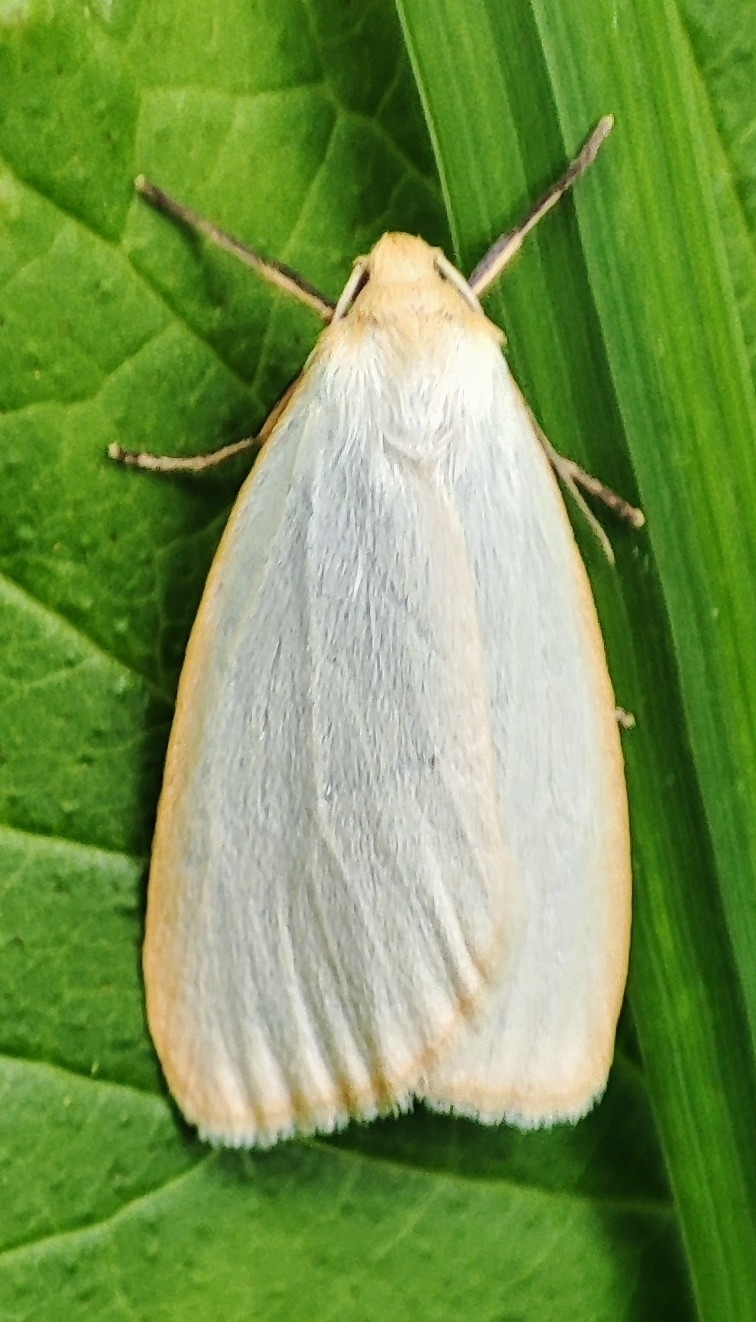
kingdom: Animalia
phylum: Arthropoda
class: Insecta
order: Lepidoptera
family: Erebidae
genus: Cybosia
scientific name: Cybosia mesomella
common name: Four-dotted footman
